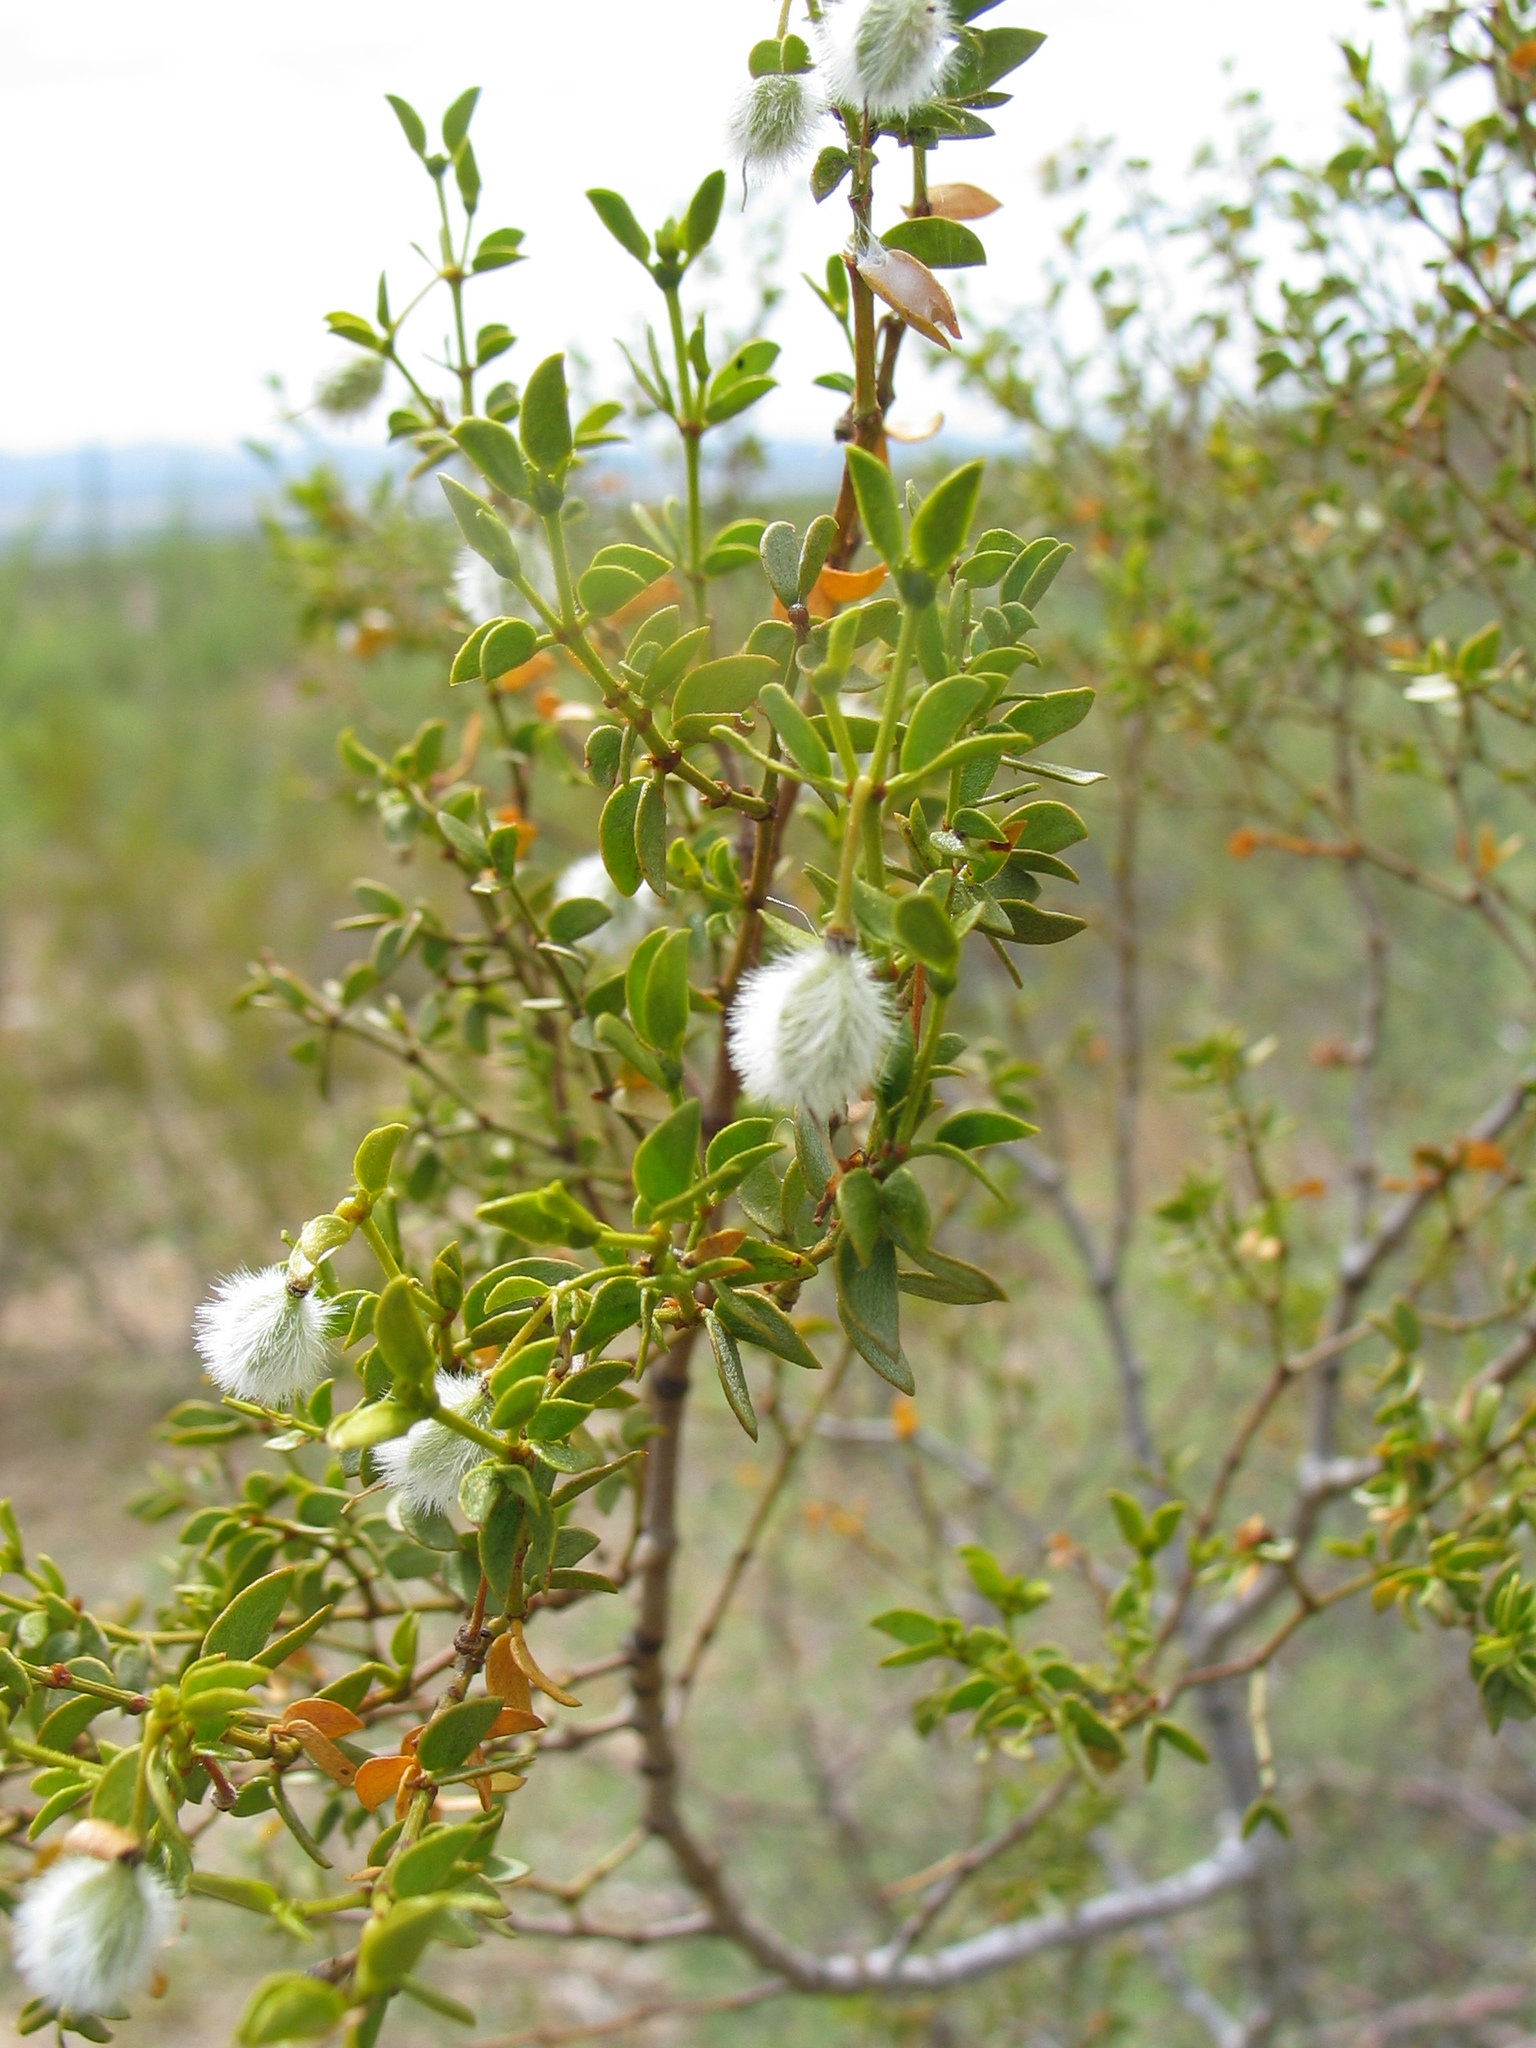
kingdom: Plantae
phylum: Tracheophyta
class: Magnoliopsida
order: Zygophyllales
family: Zygophyllaceae
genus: Larrea
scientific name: Larrea tridentata
